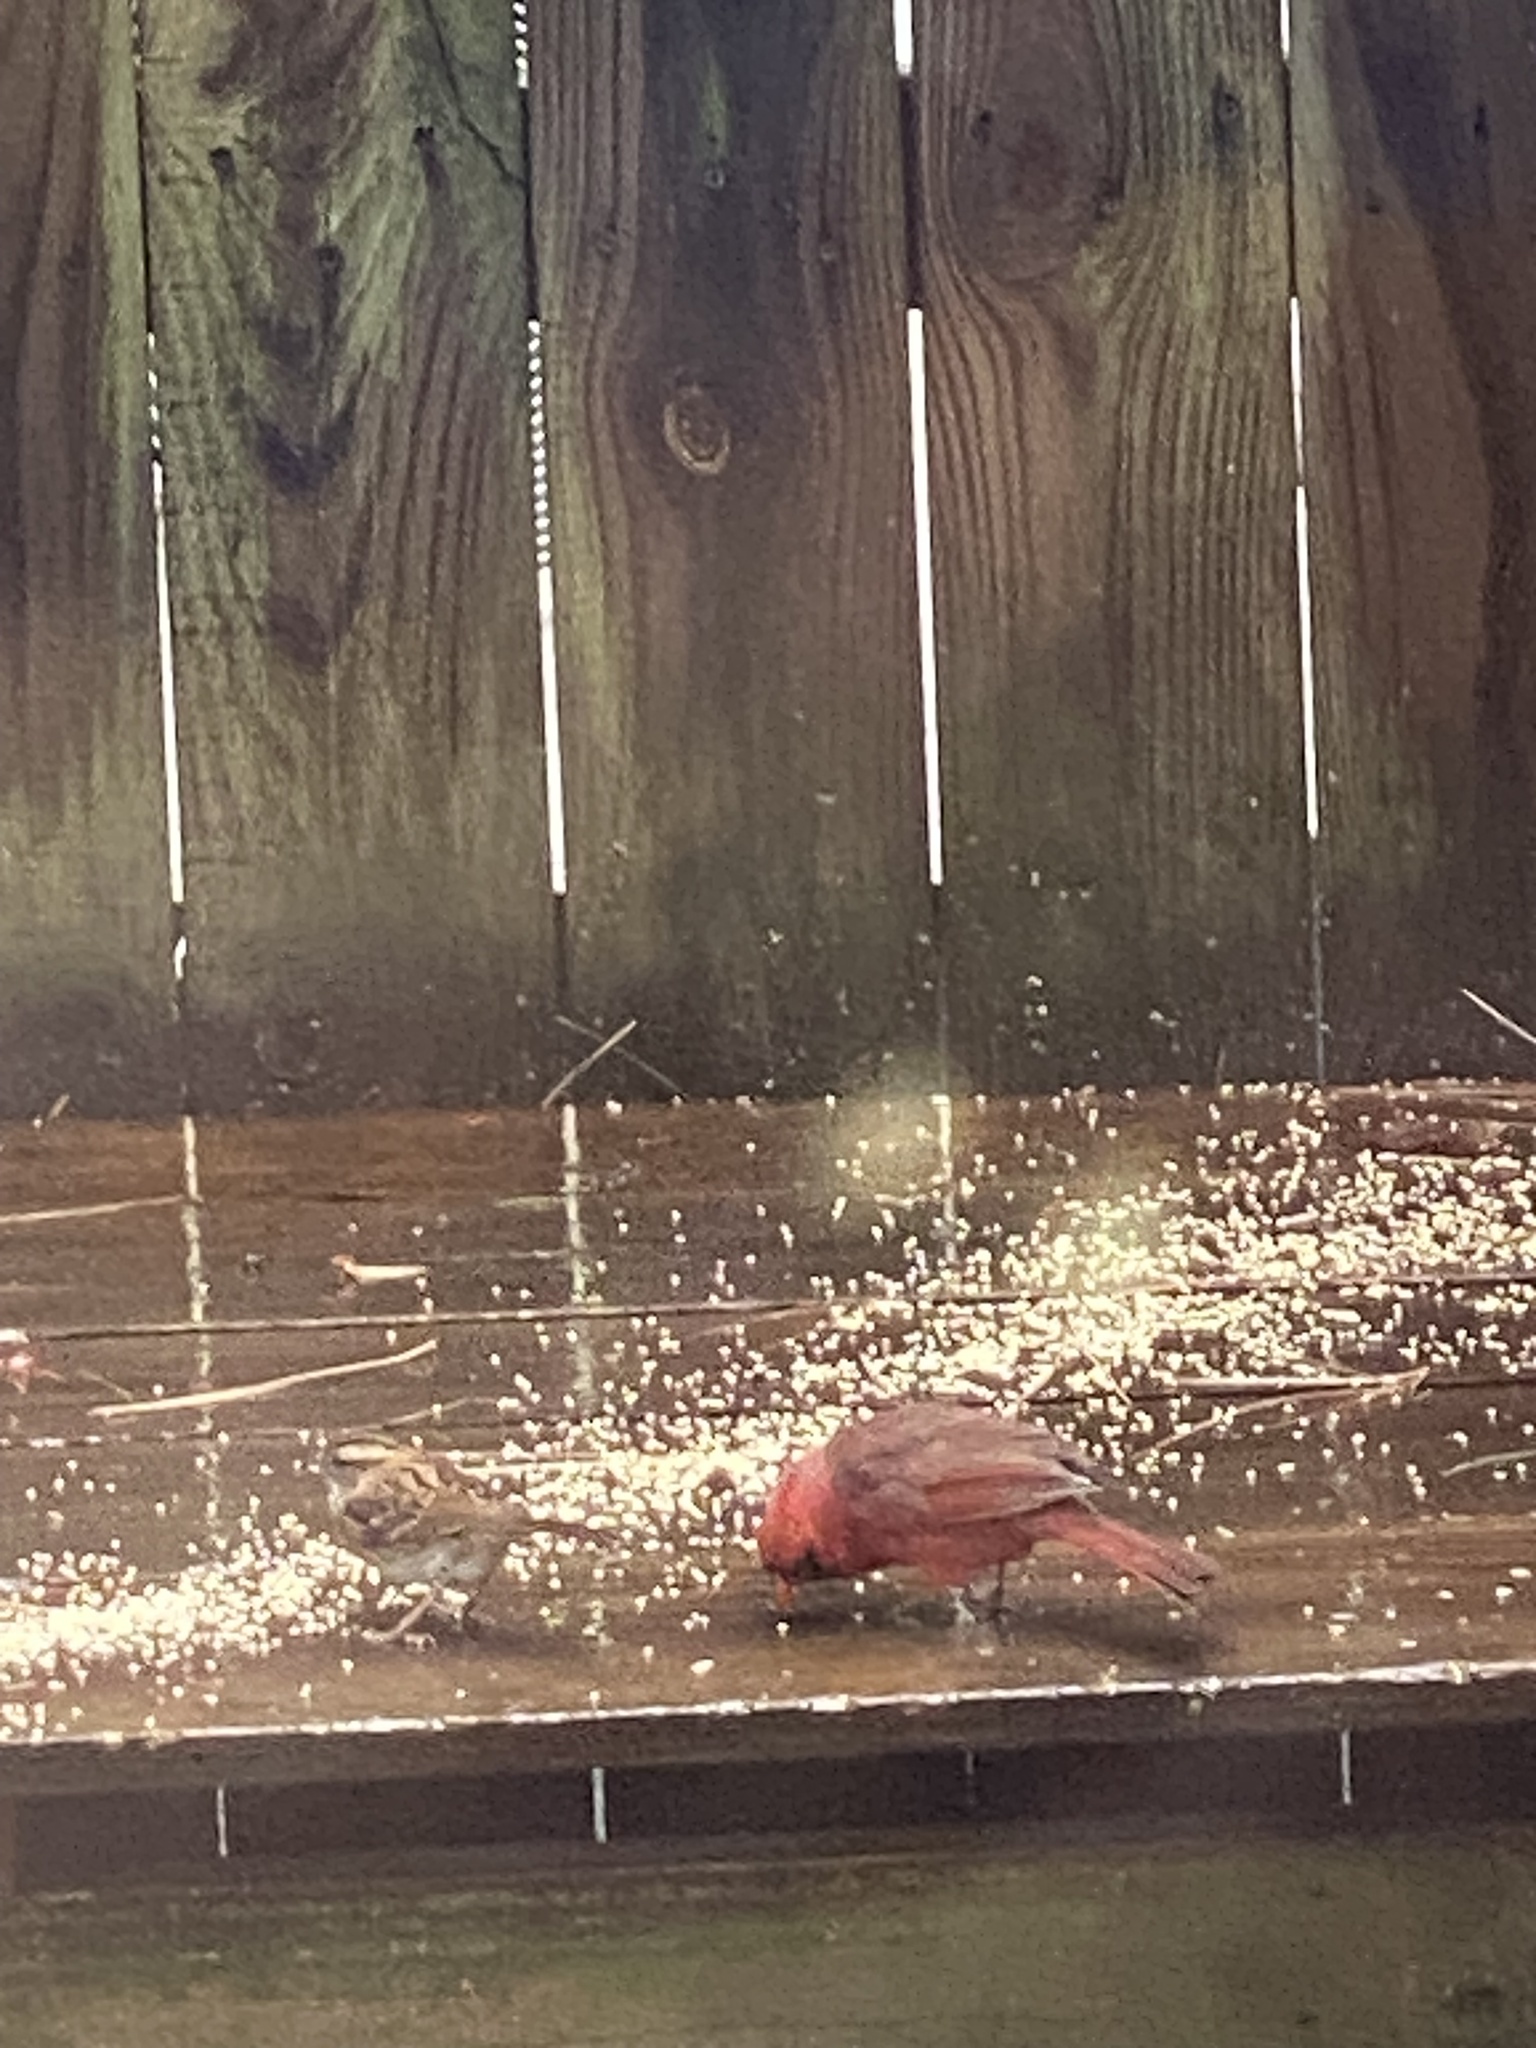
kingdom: Animalia
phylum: Chordata
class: Aves
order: Passeriformes
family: Cardinalidae
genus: Cardinalis
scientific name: Cardinalis cardinalis
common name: Northern cardinal
